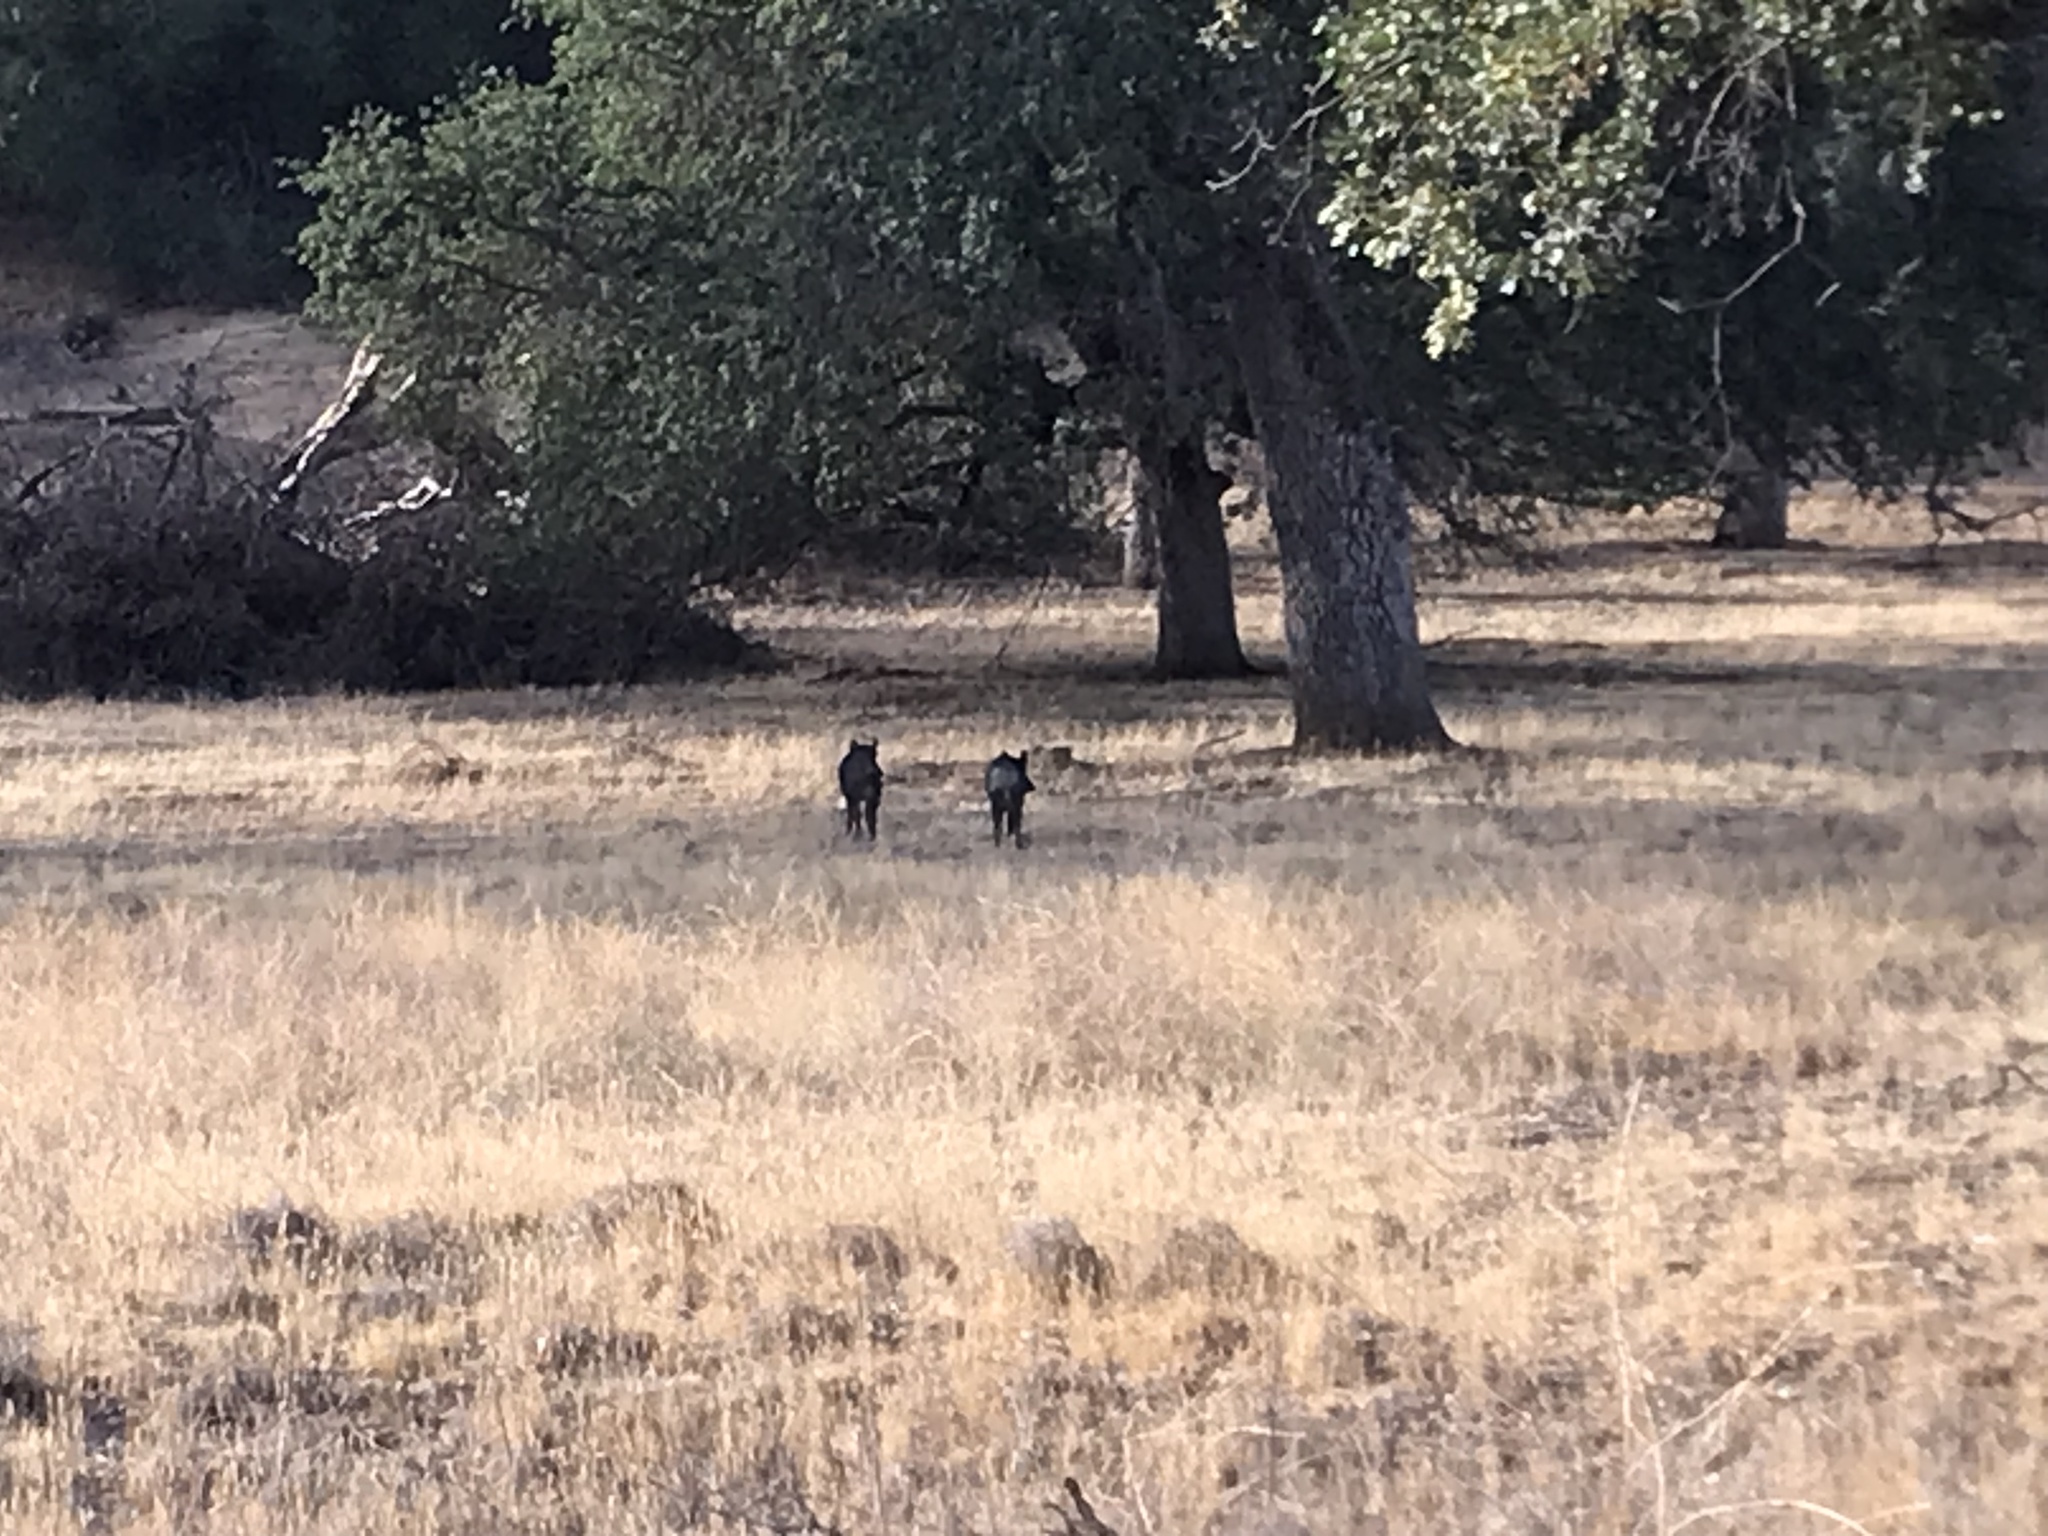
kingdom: Animalia
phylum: Chordata
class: Mammalia
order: Artiodactyla
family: Suidae
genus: Sus
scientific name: Sus scrofa
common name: Wild boar
